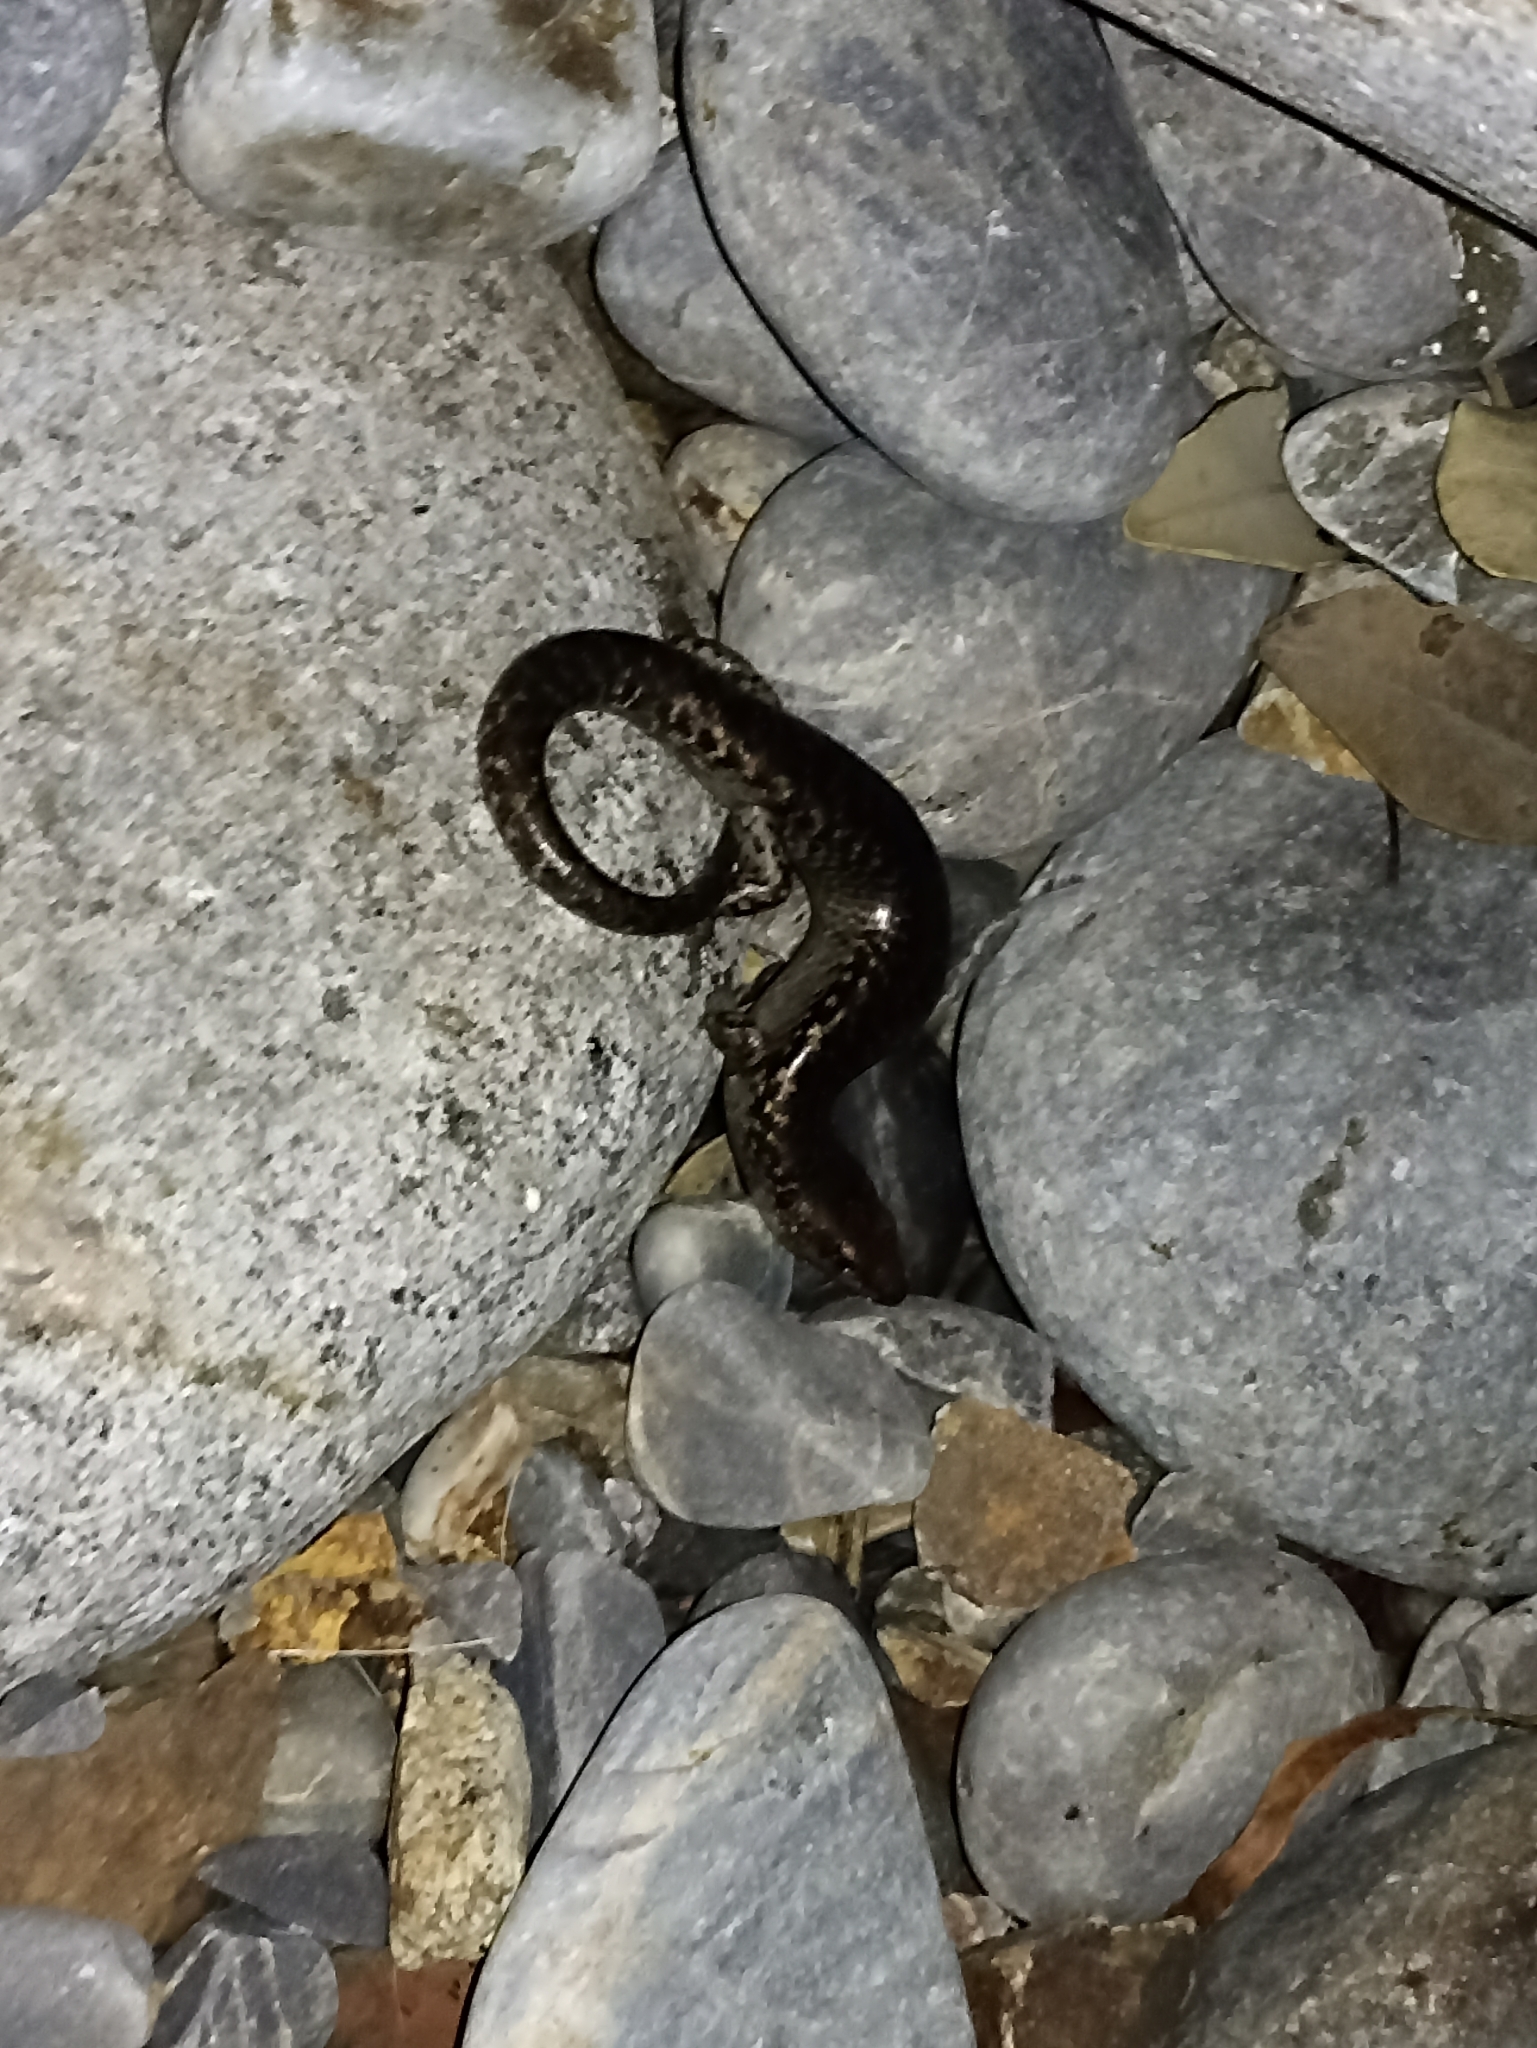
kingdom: Animalia
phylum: Chordata
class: Squamata
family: Scincidae
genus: Oligosoma
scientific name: Oligosoma suteri
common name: Egg-laying skink
